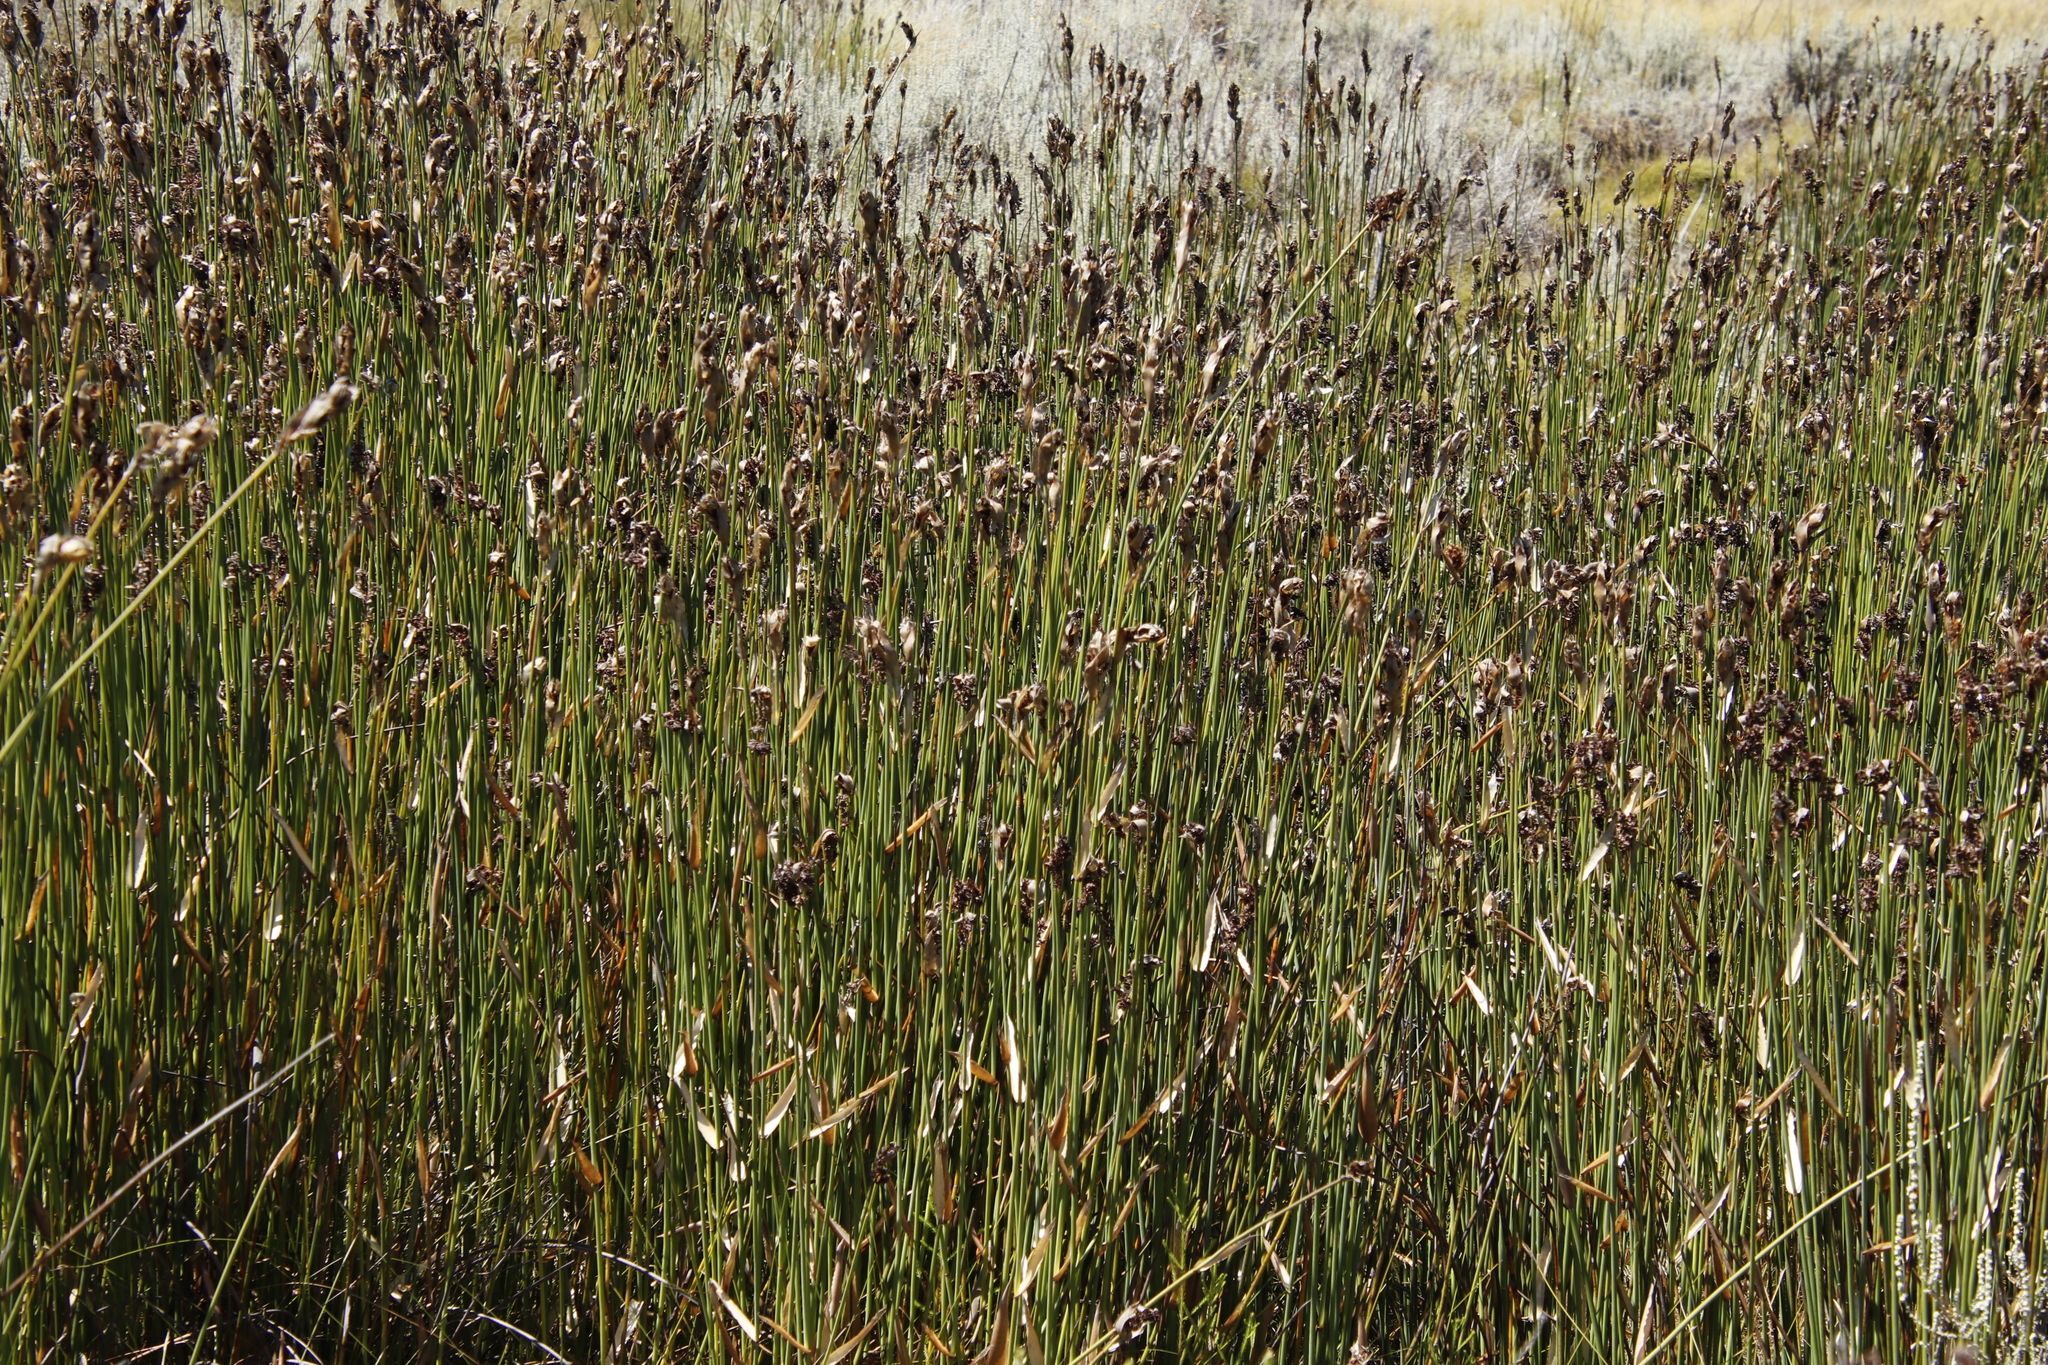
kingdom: Plantae
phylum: Tracheophyta
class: Liliopsida
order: Poales
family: Restionaceae
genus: Elegia
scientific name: Elegia grandispicata
